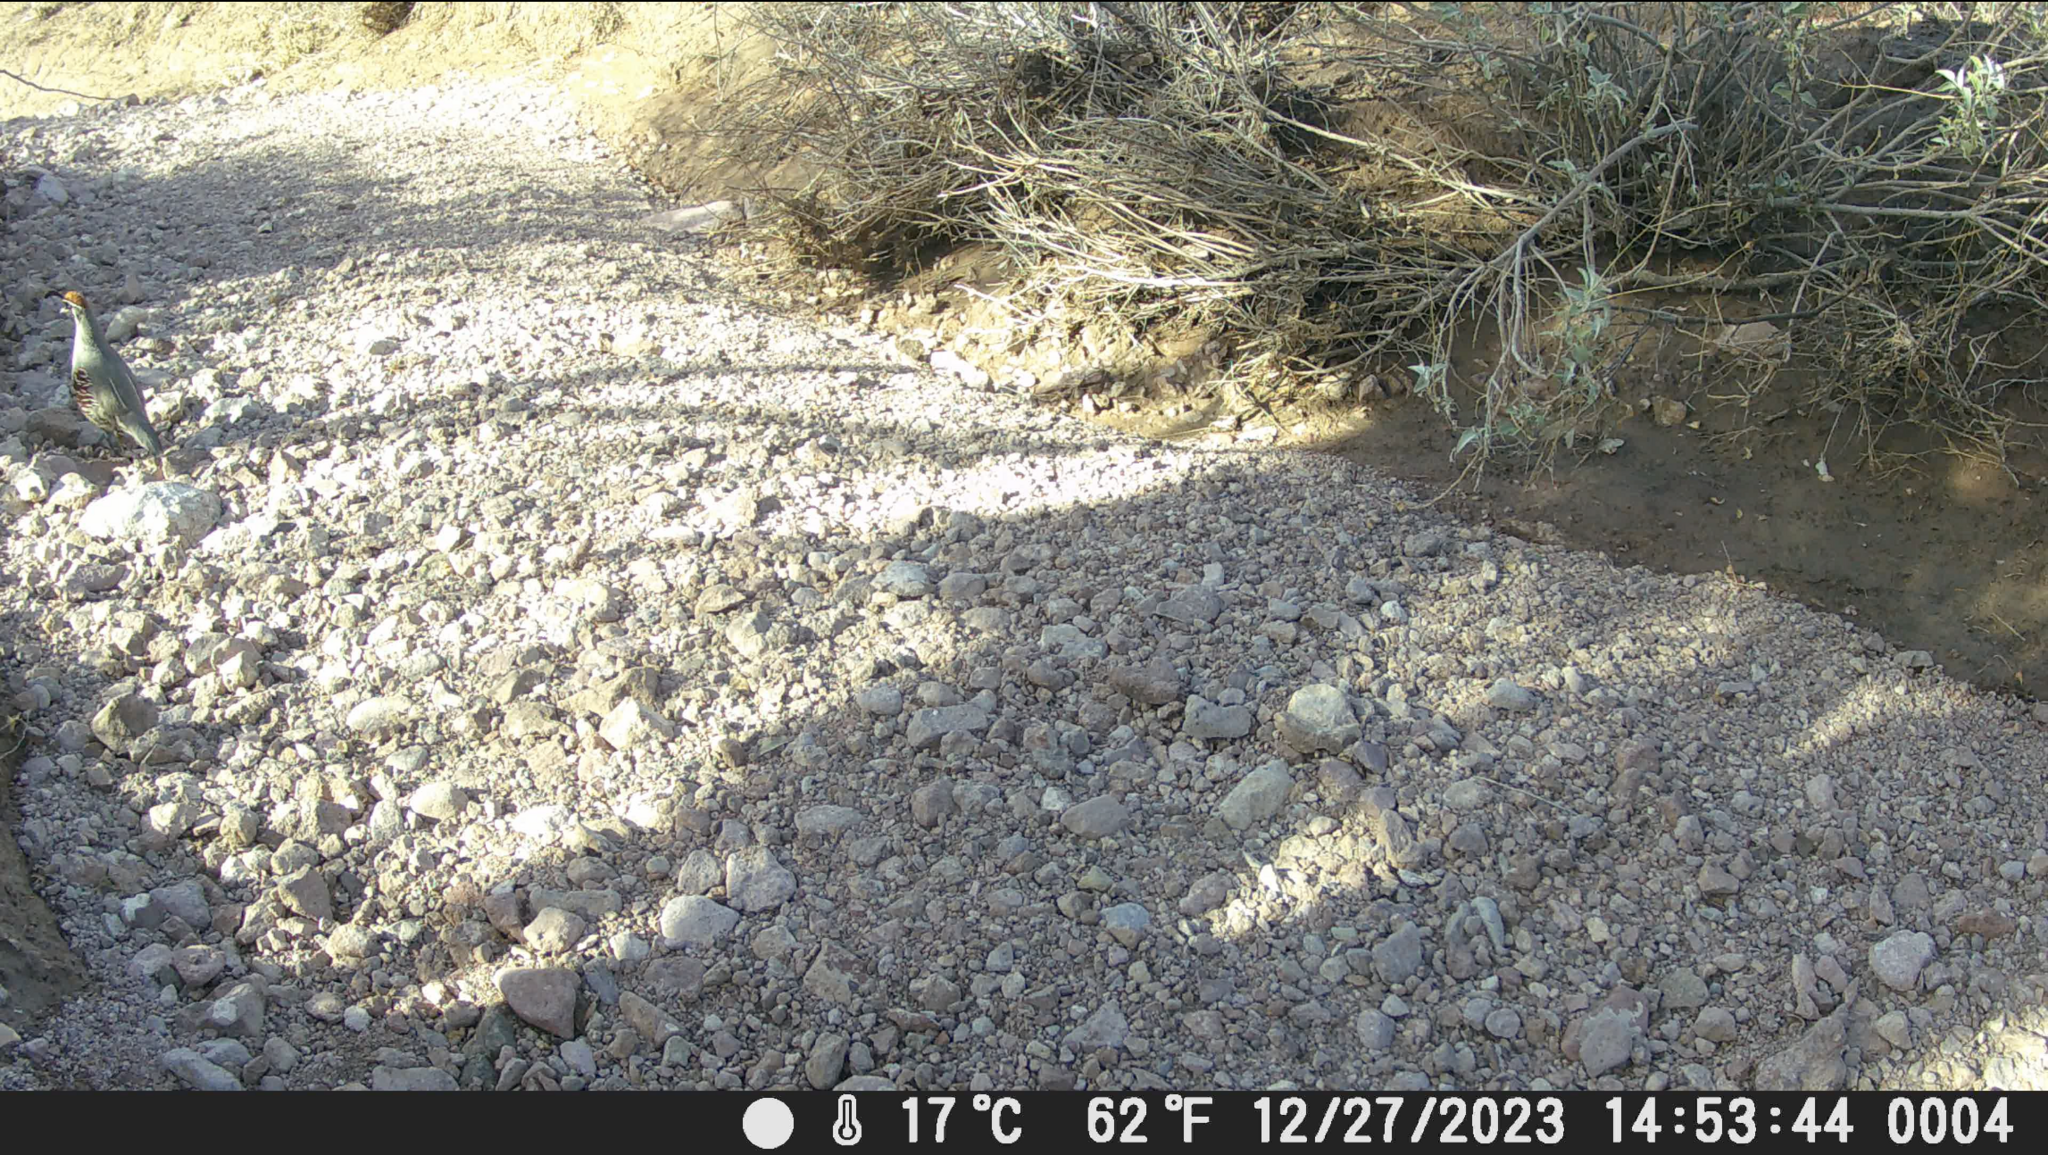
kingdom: Animalia
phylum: Chordata
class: Aves
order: Galliformes
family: Odontophoridae
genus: Callipepla
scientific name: Callipepla gambelii
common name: Gambel's quail
